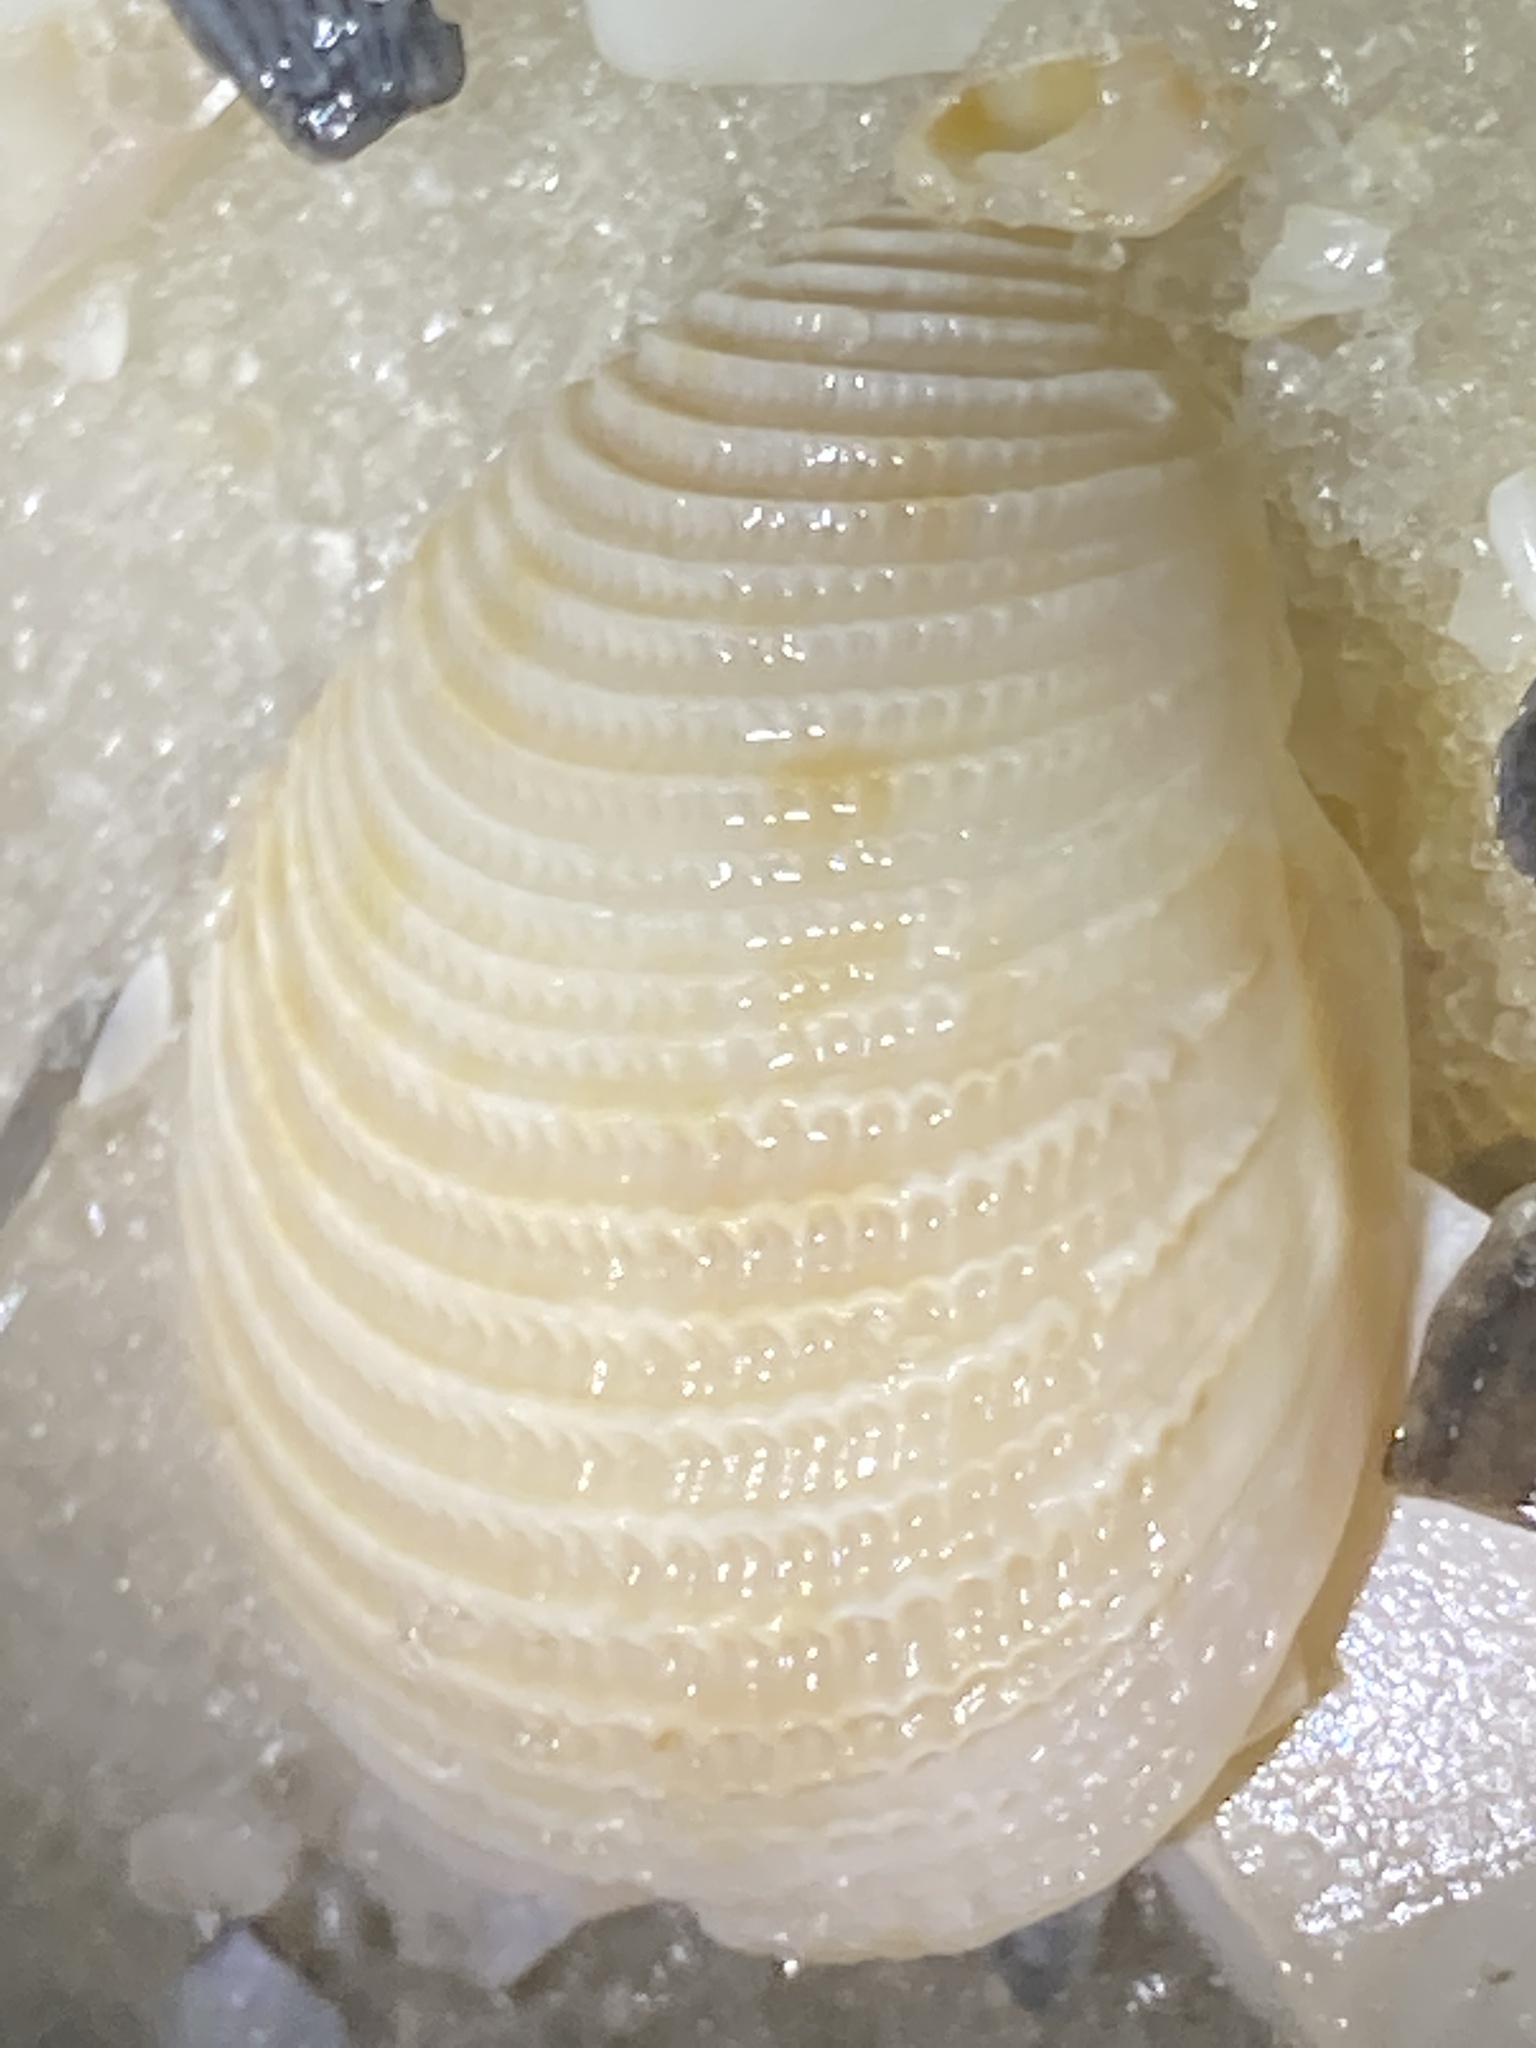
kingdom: Animalia
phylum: Mollusca
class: Bivalvia
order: Venerida
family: Veneridae
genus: Chionopsis
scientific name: Chionopsis intapurpurea
